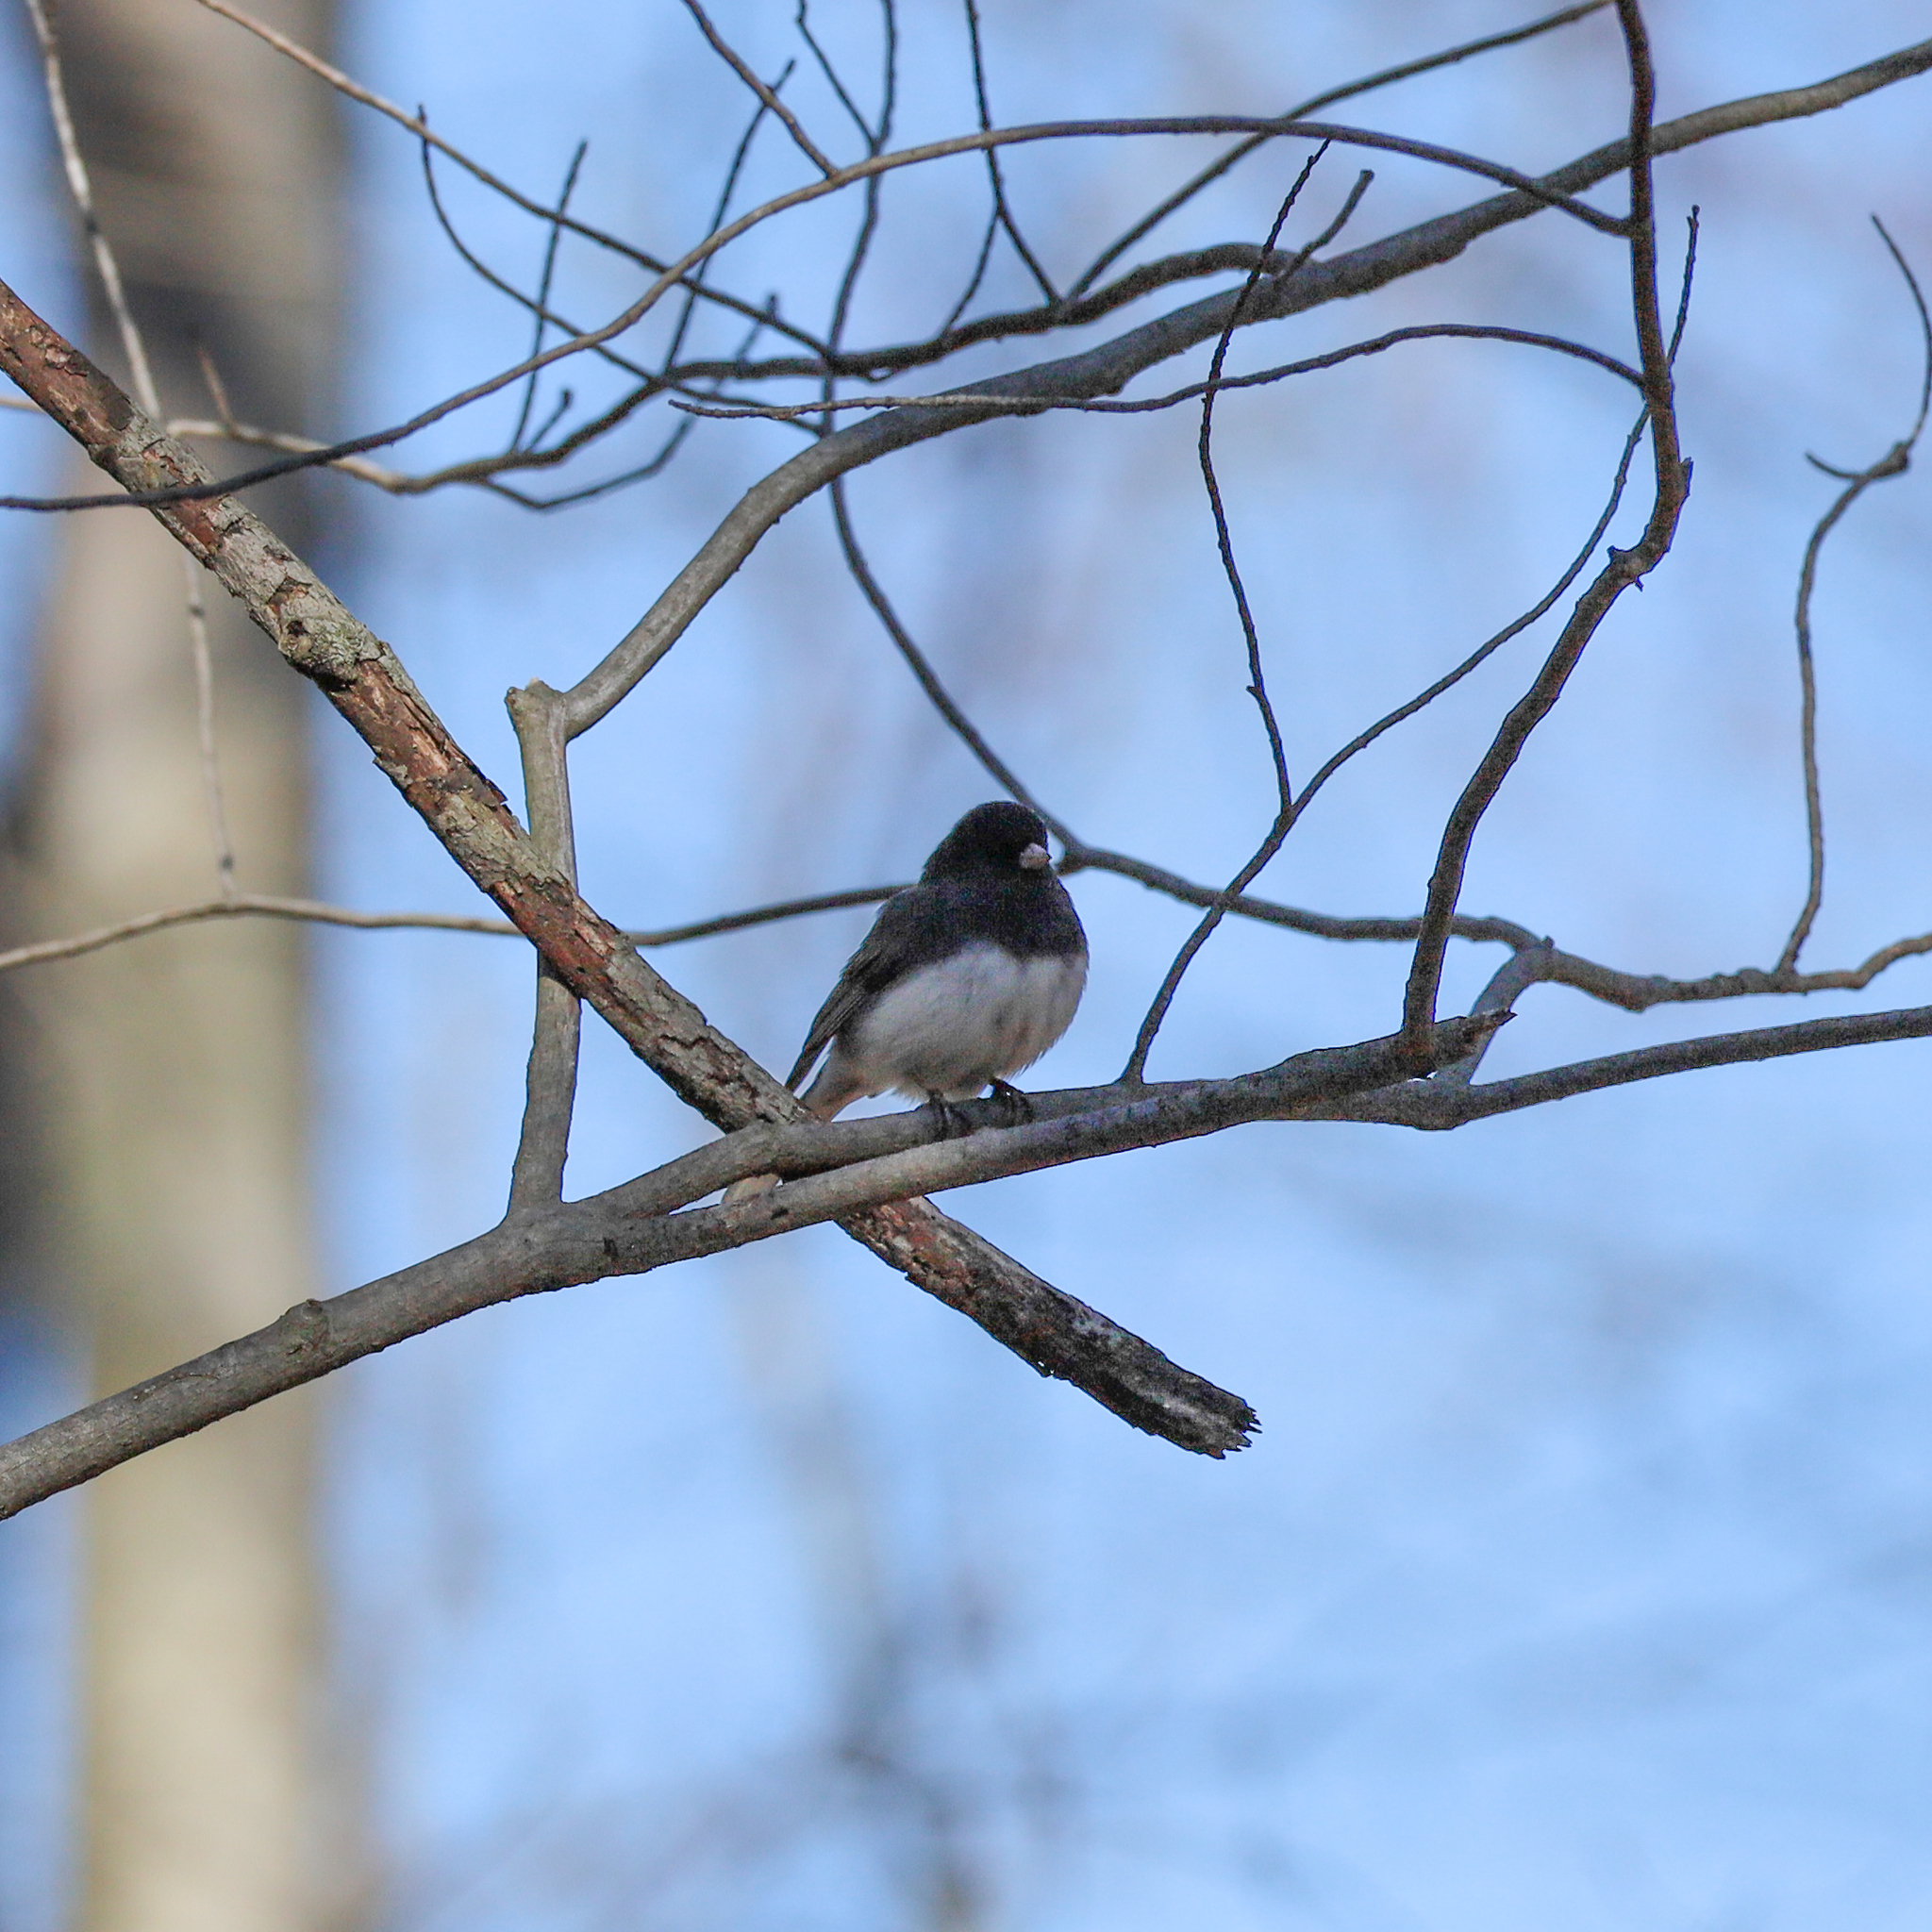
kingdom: Animalia
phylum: Chordata
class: Aves
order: Passeriformes
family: Passerellidae
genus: Junco
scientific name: Junco hyemalis
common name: Dark-eyed junco
